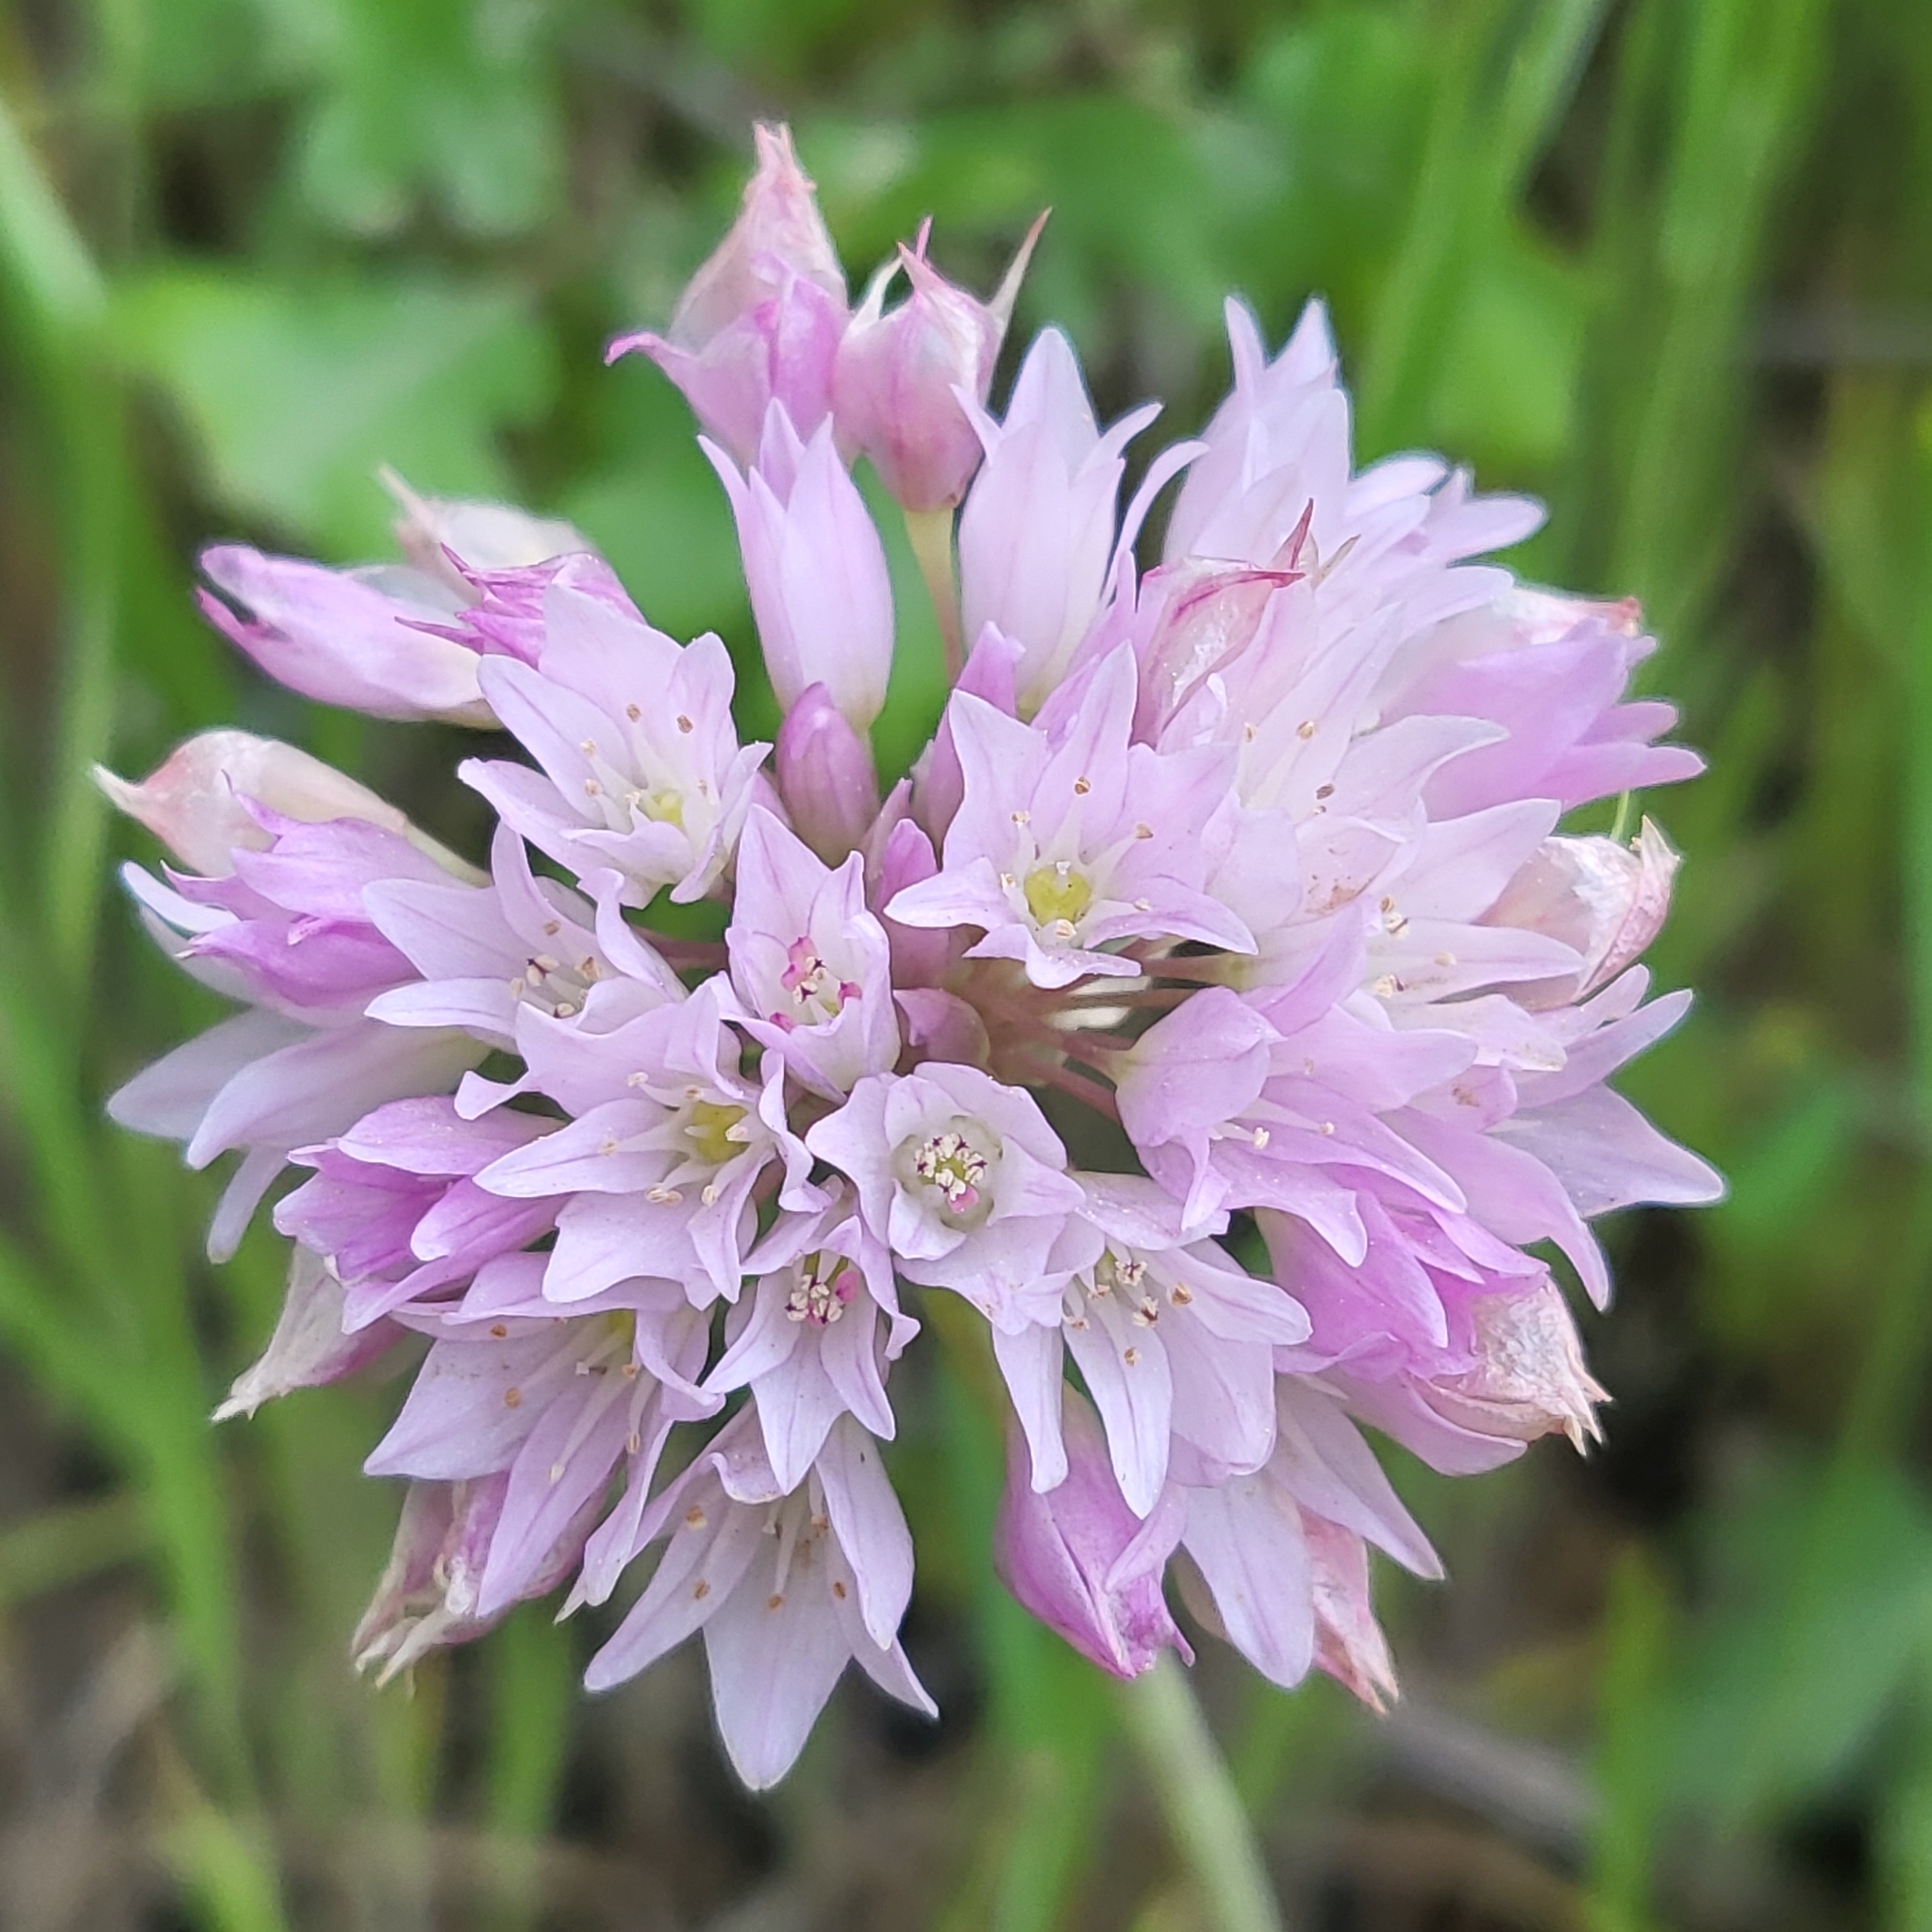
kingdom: Plantae
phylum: Tracheophyta
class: Liliopsida
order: Asparagales
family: Amaryllidaceae
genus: Allium
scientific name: Allium serra
